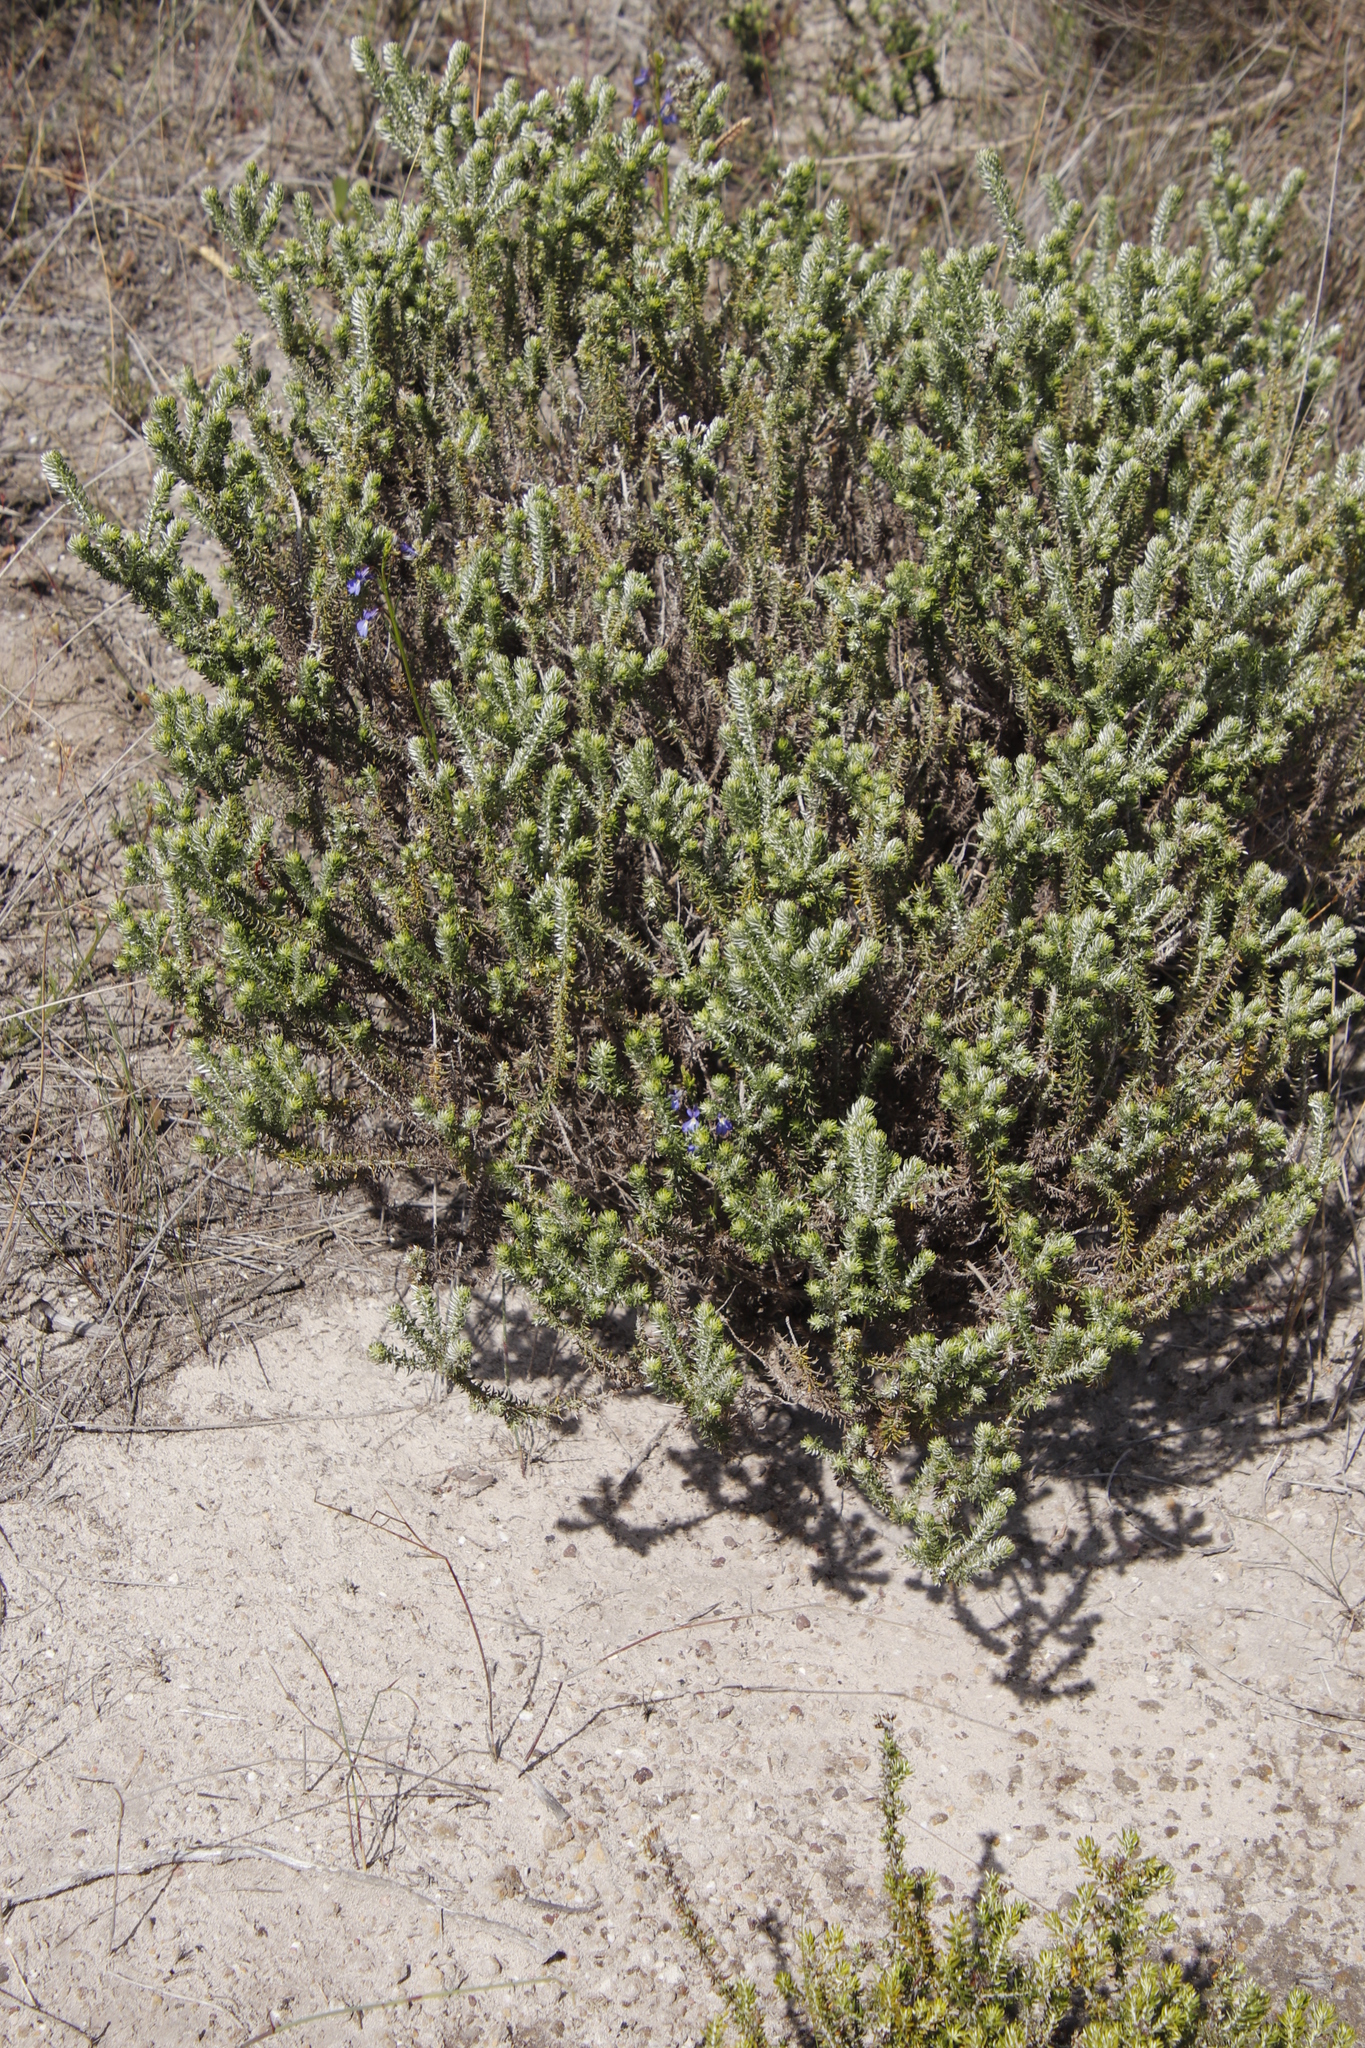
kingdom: Plantae
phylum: Tracheophyta
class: Magnoliopsida
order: Asterales
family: Campanulaceae
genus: Lobelia
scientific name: Lobelia comosa
